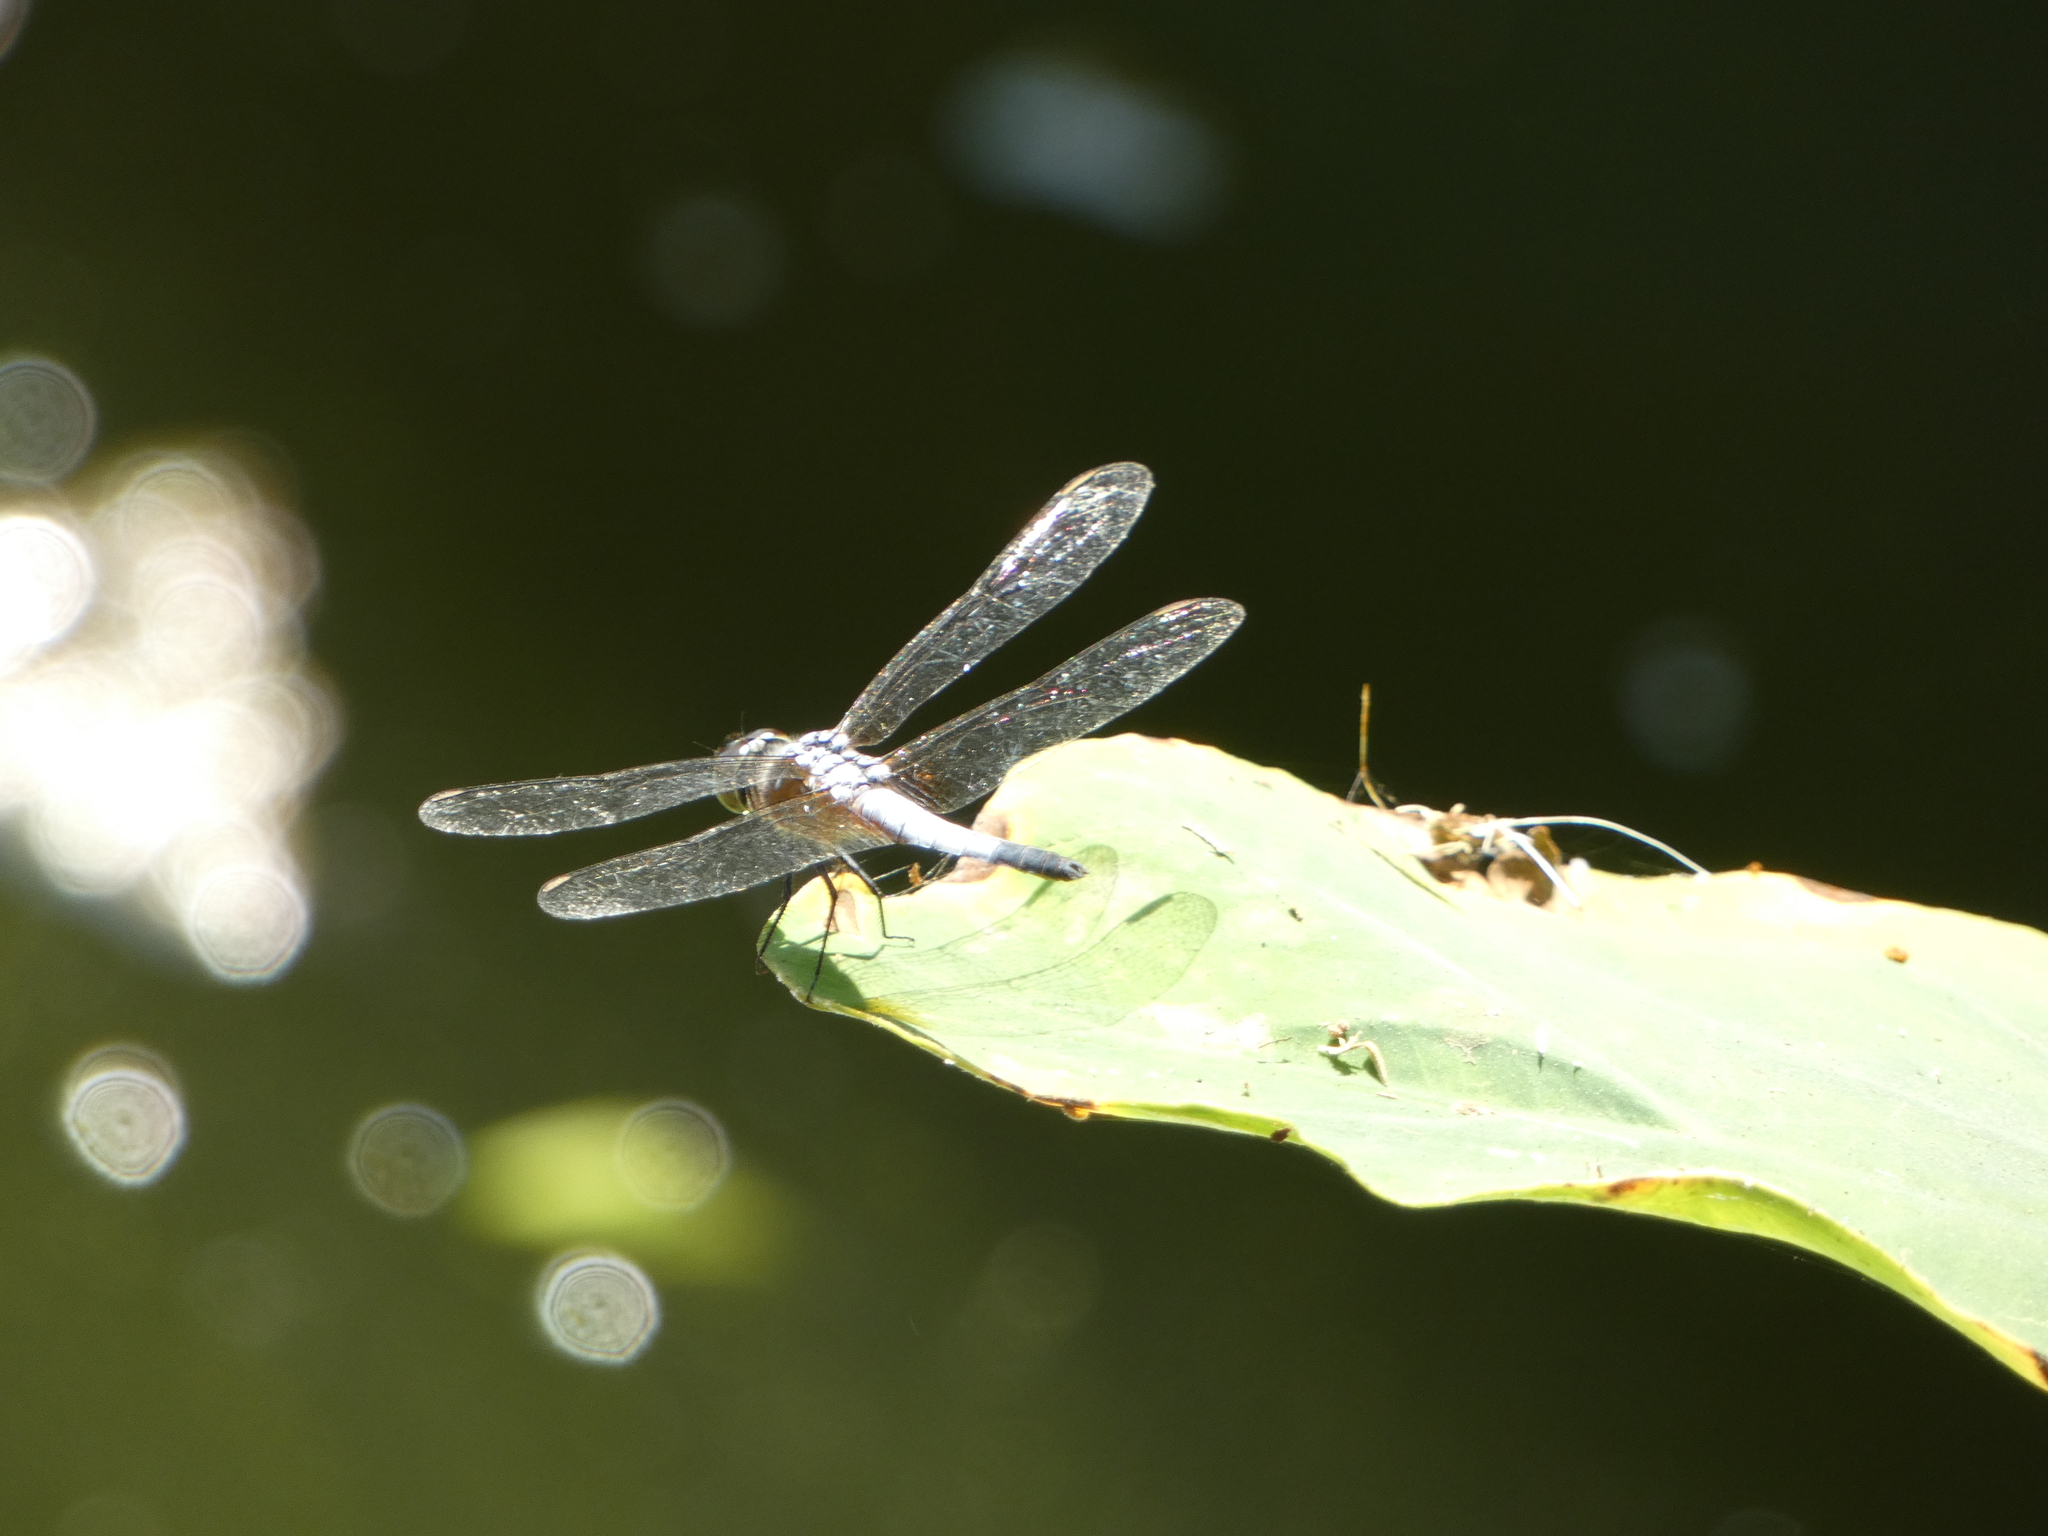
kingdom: Animalia
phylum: Arthropoda
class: Insecta
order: Odonata
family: Libellulidae
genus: Brachydiplax
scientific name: Brachydiplax chalybea
